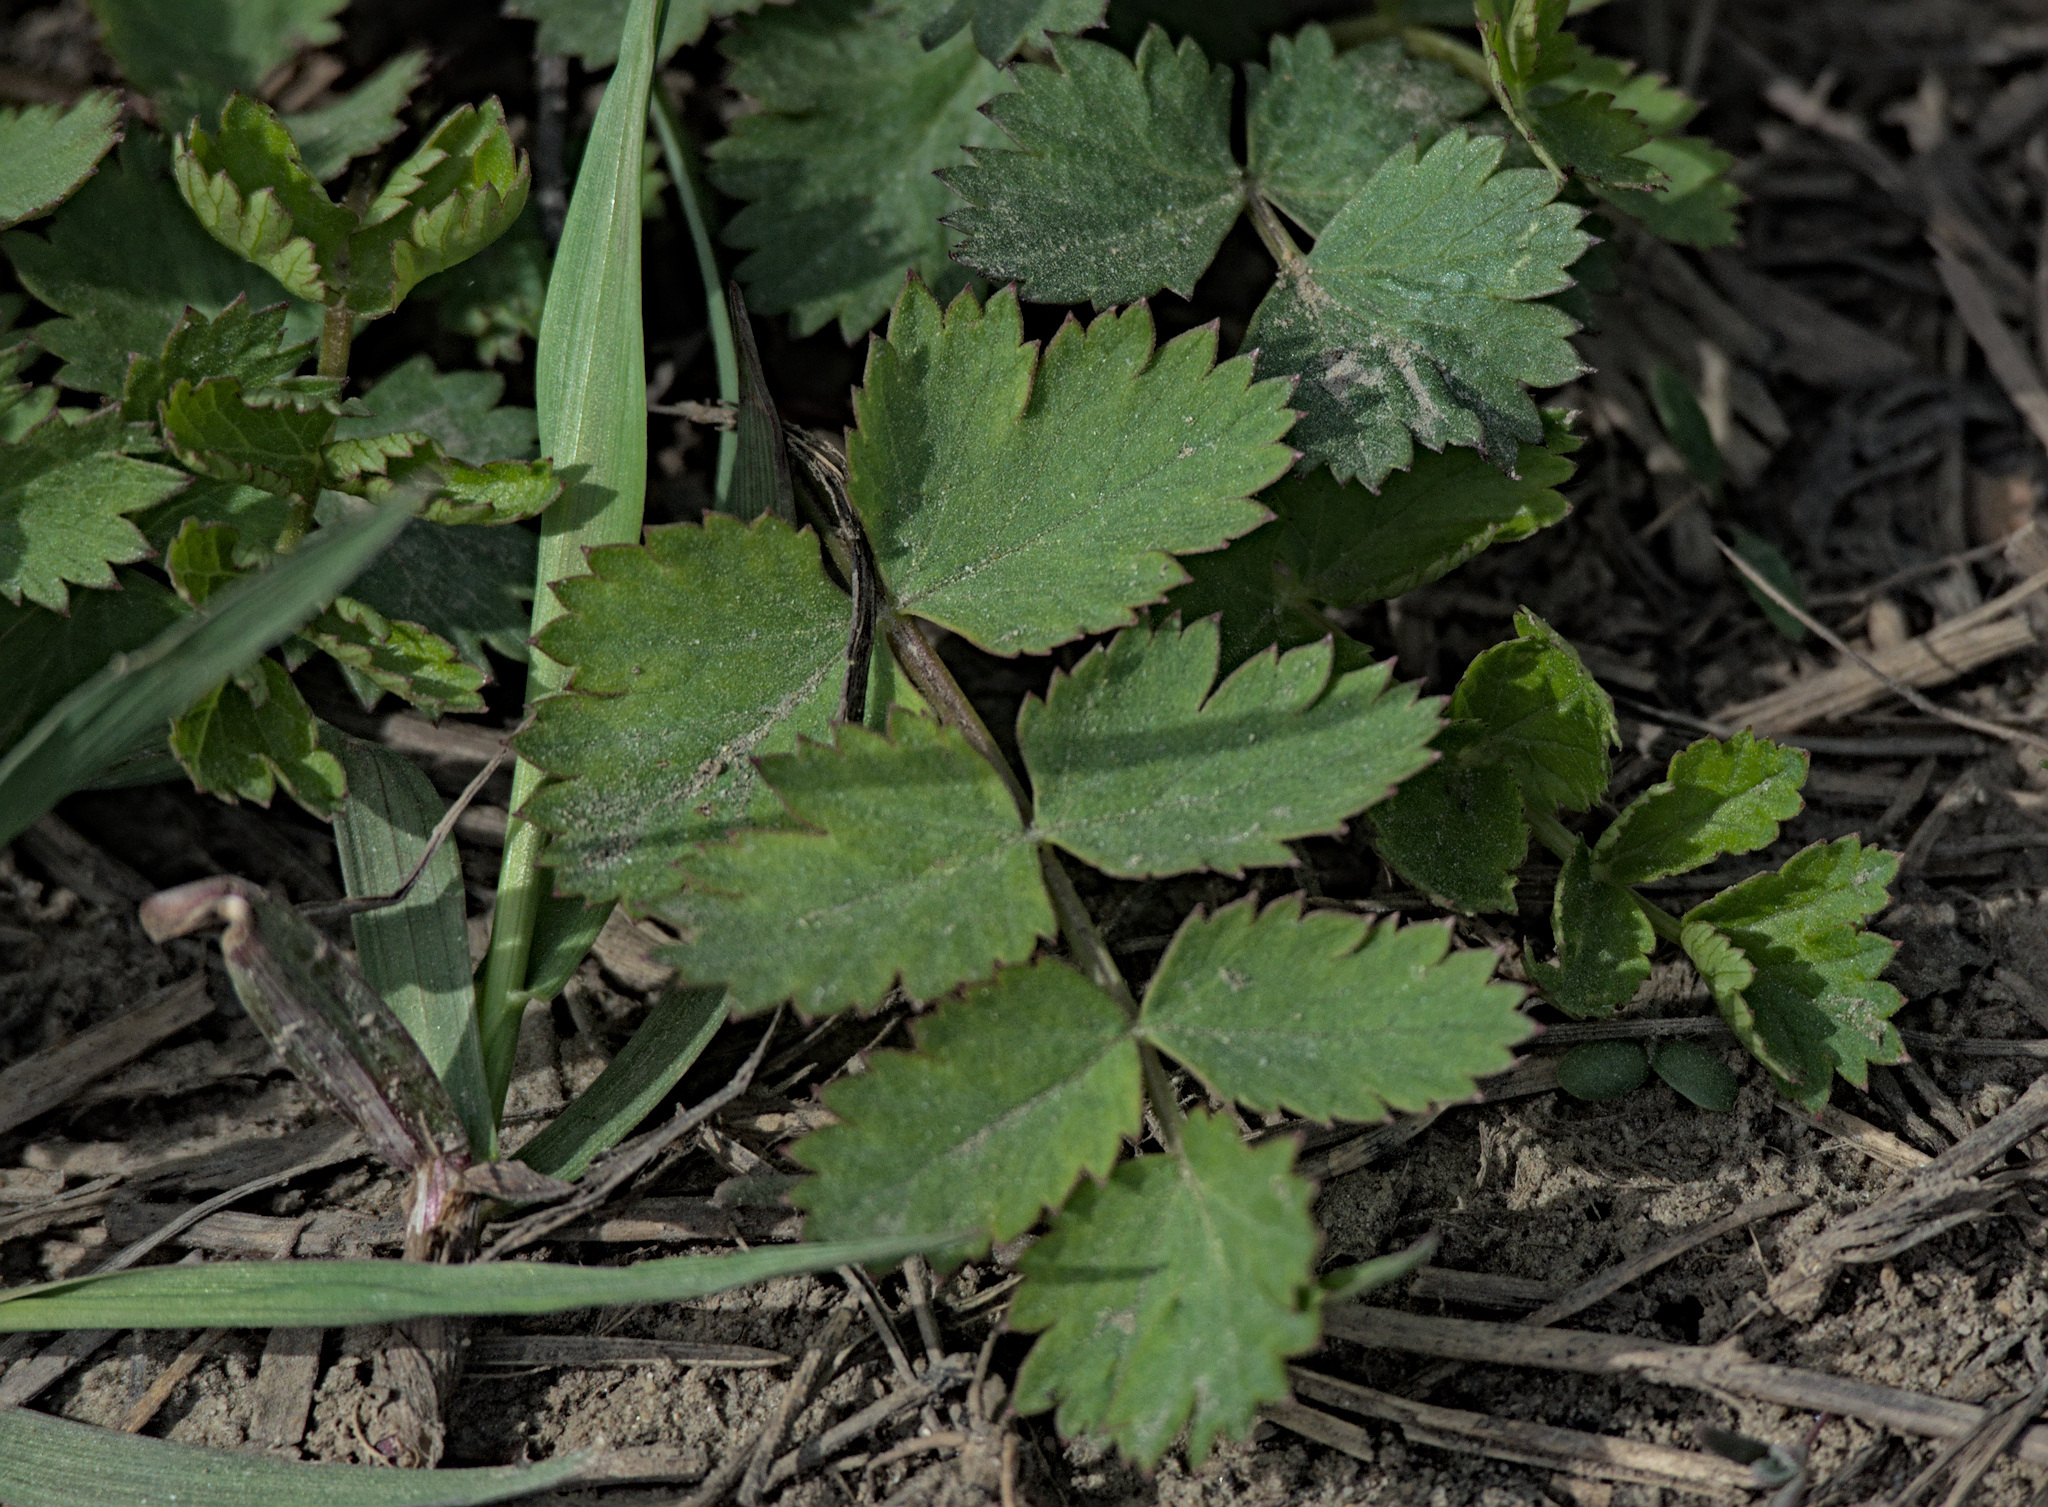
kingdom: Plantae
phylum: Tracheophyta
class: Magnoliopsida
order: Apiales
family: Apiaceae
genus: Pimpinella
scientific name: Pimpinella saxifraga
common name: Burnet-saxifrage
